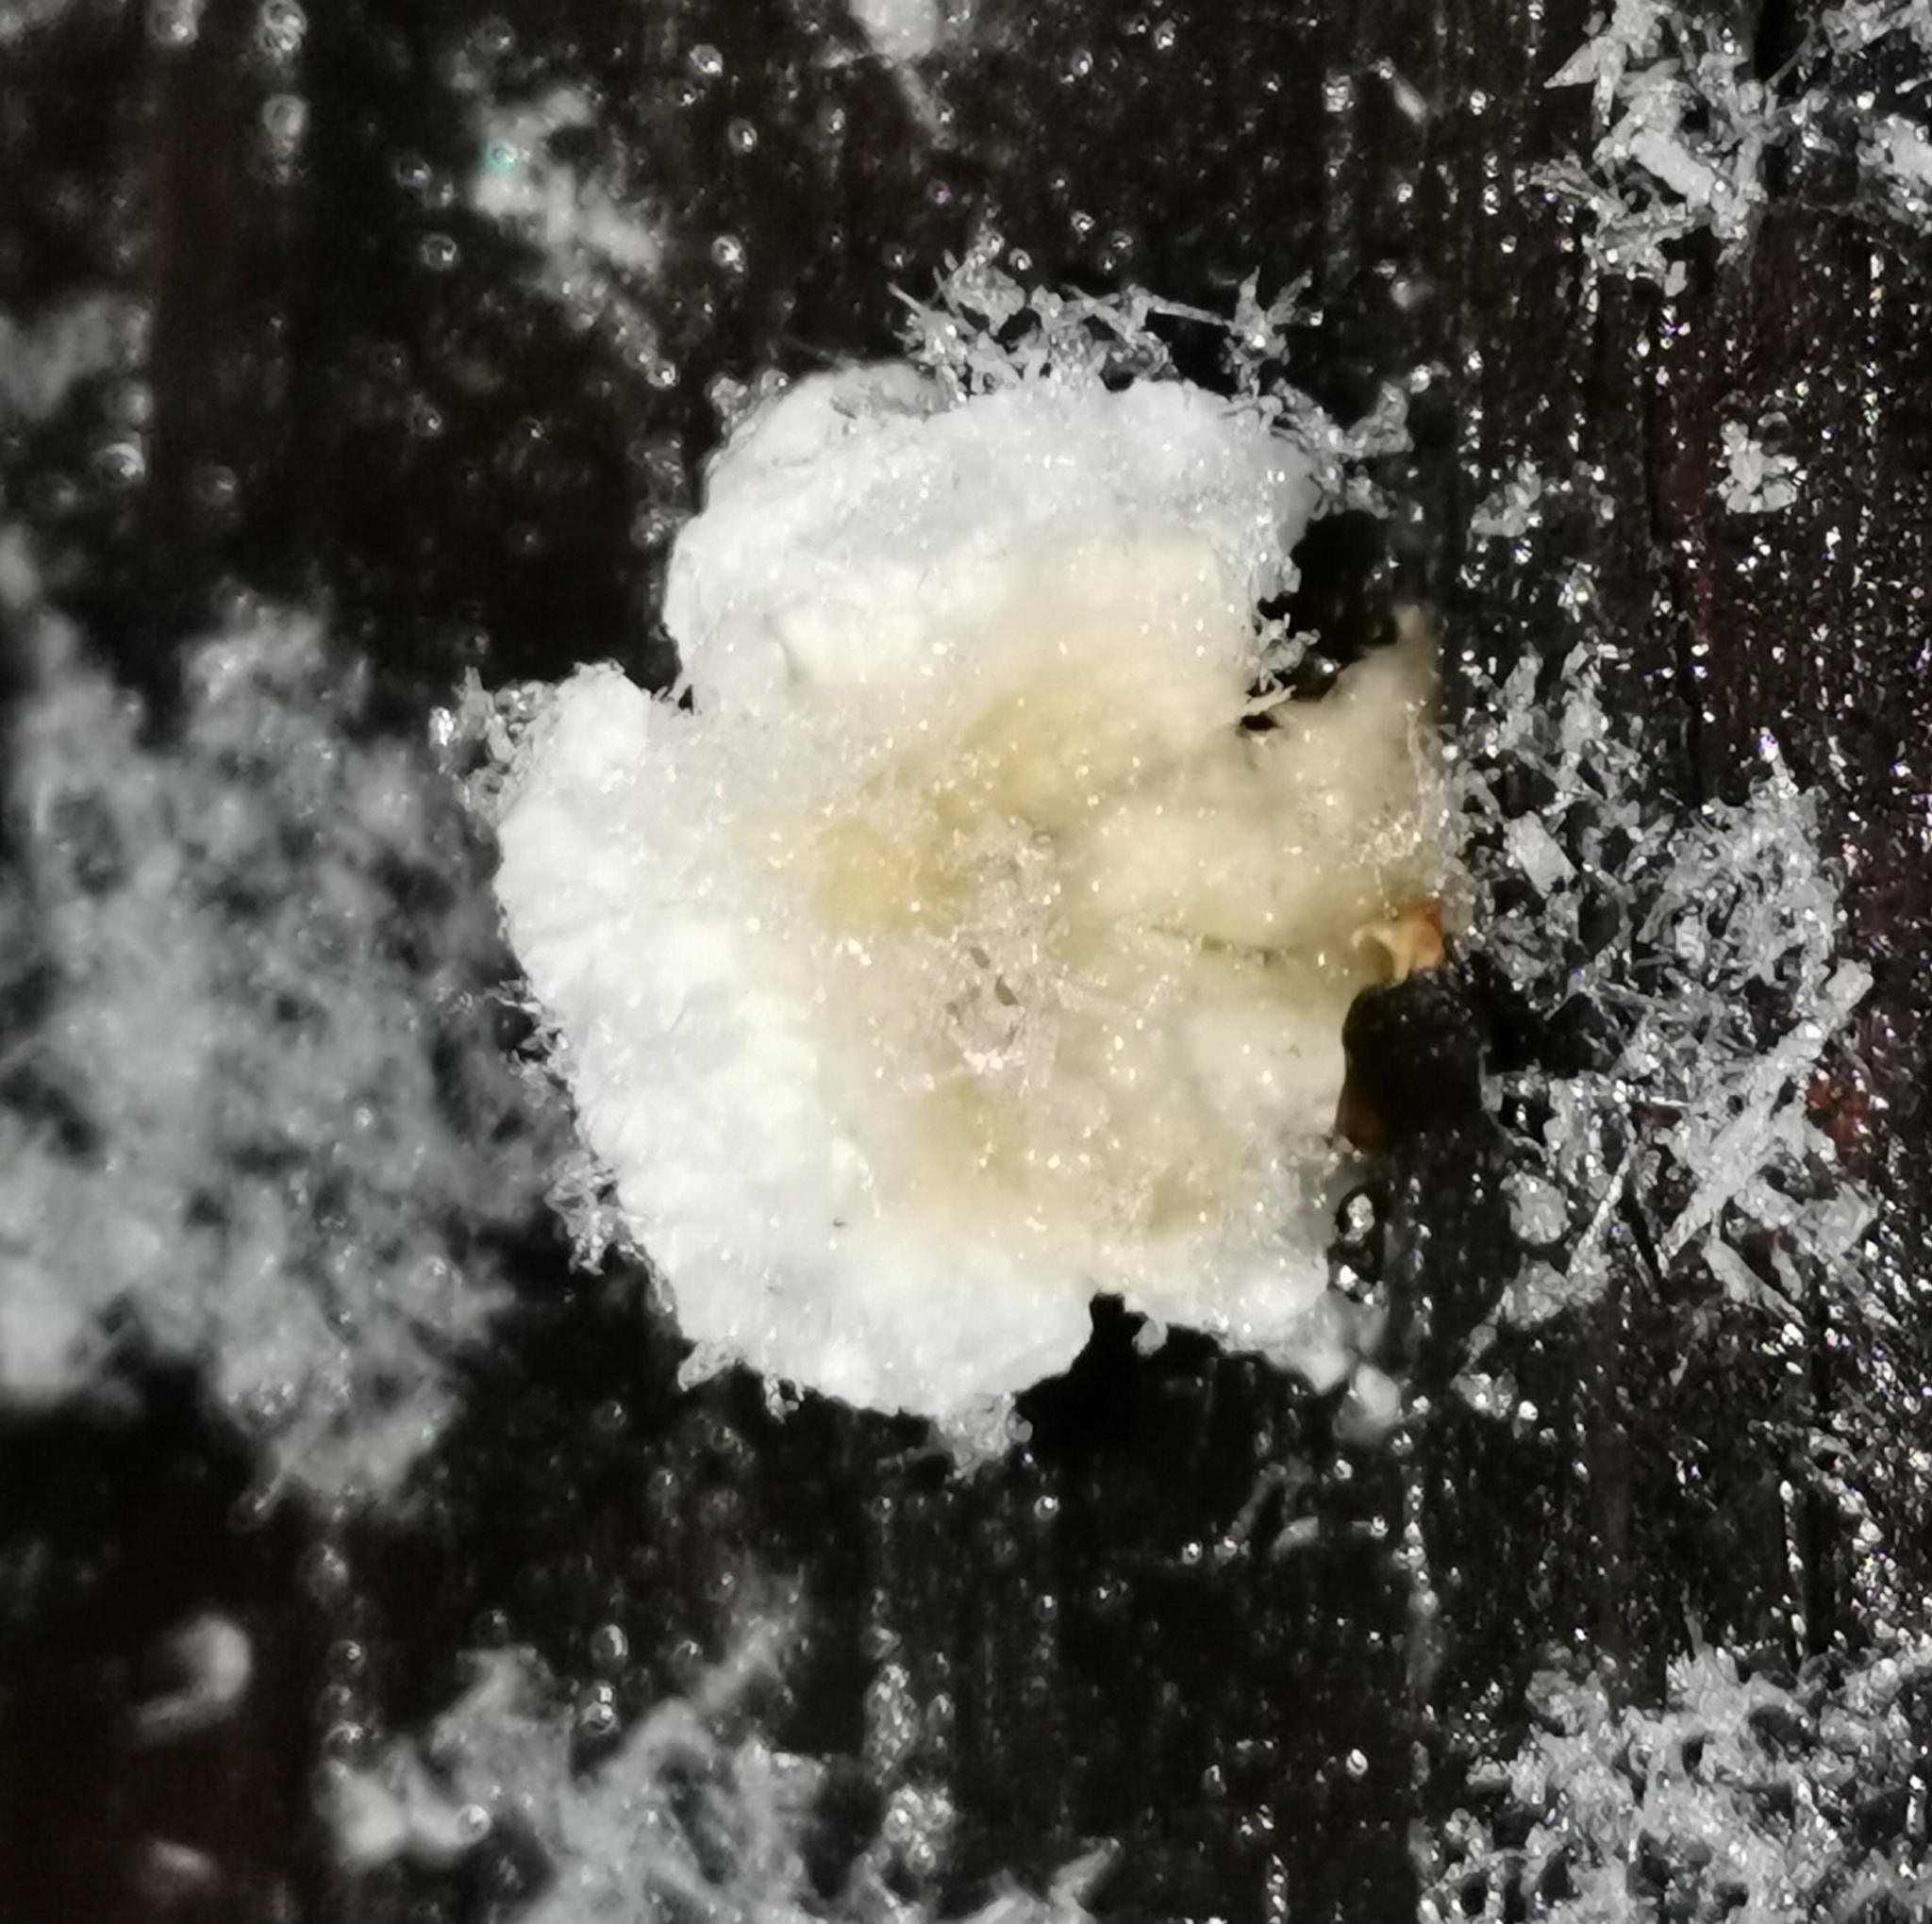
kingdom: Fungi
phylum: Basidiomycota
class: Agaricomycetes
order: Agaricales
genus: Plicatura
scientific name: Plicatura nivea
